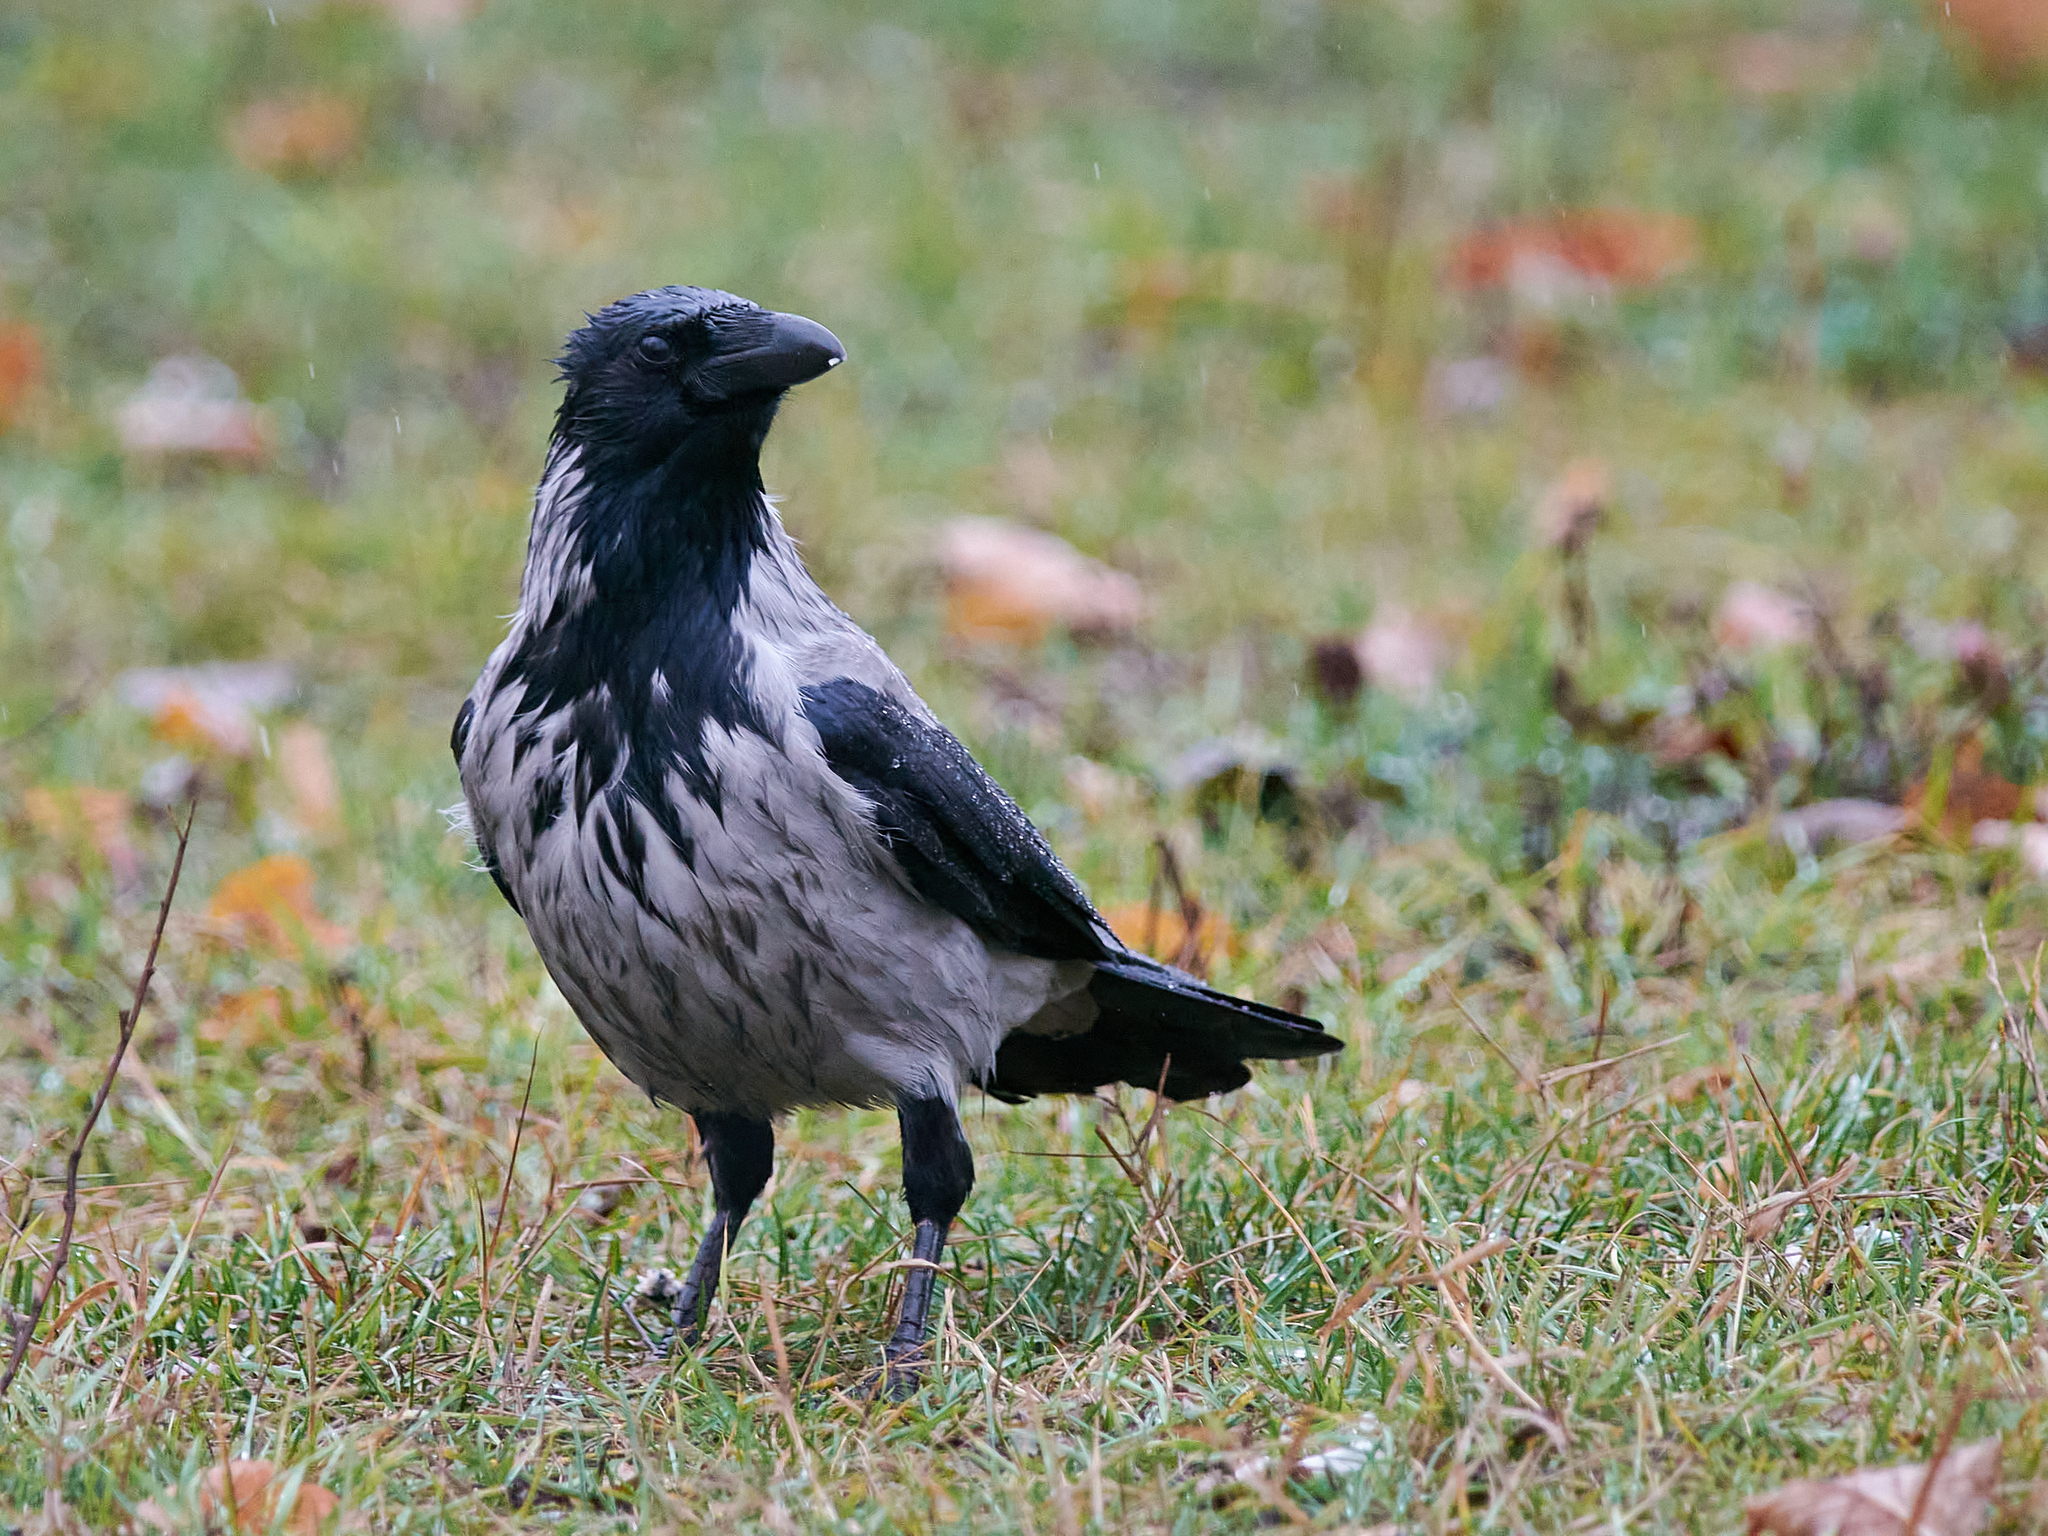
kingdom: Animalia
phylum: Chordata
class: Aves
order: Passeriformes
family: Corvidae
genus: Corvus
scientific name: Corvus cornix
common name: Hooded crow
